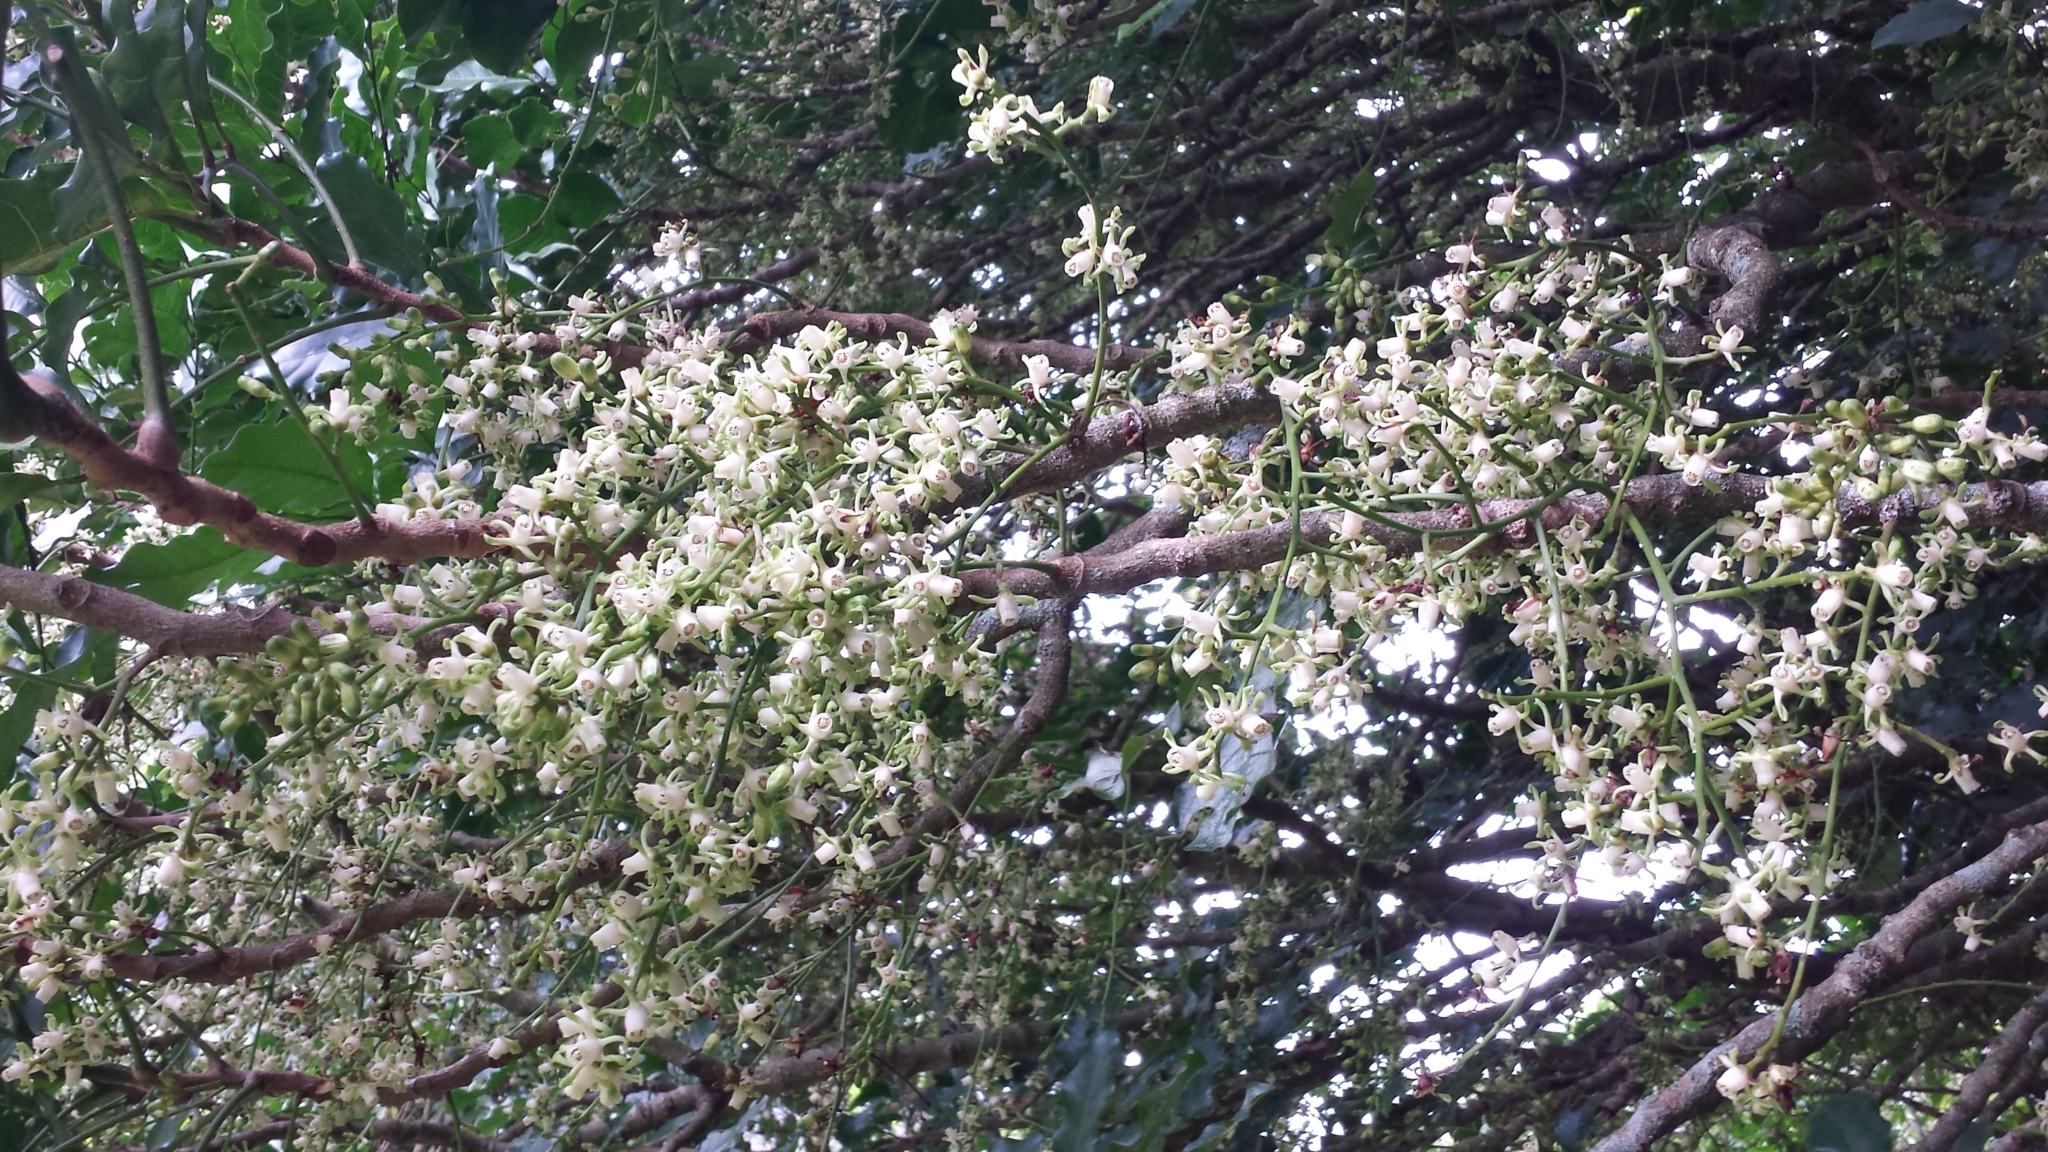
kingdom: Plantae
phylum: Tracheophyta
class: Magnoliopsida
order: Sapindales
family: Meliaceae
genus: Didymocheton
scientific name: Didymocheton spectabilis
